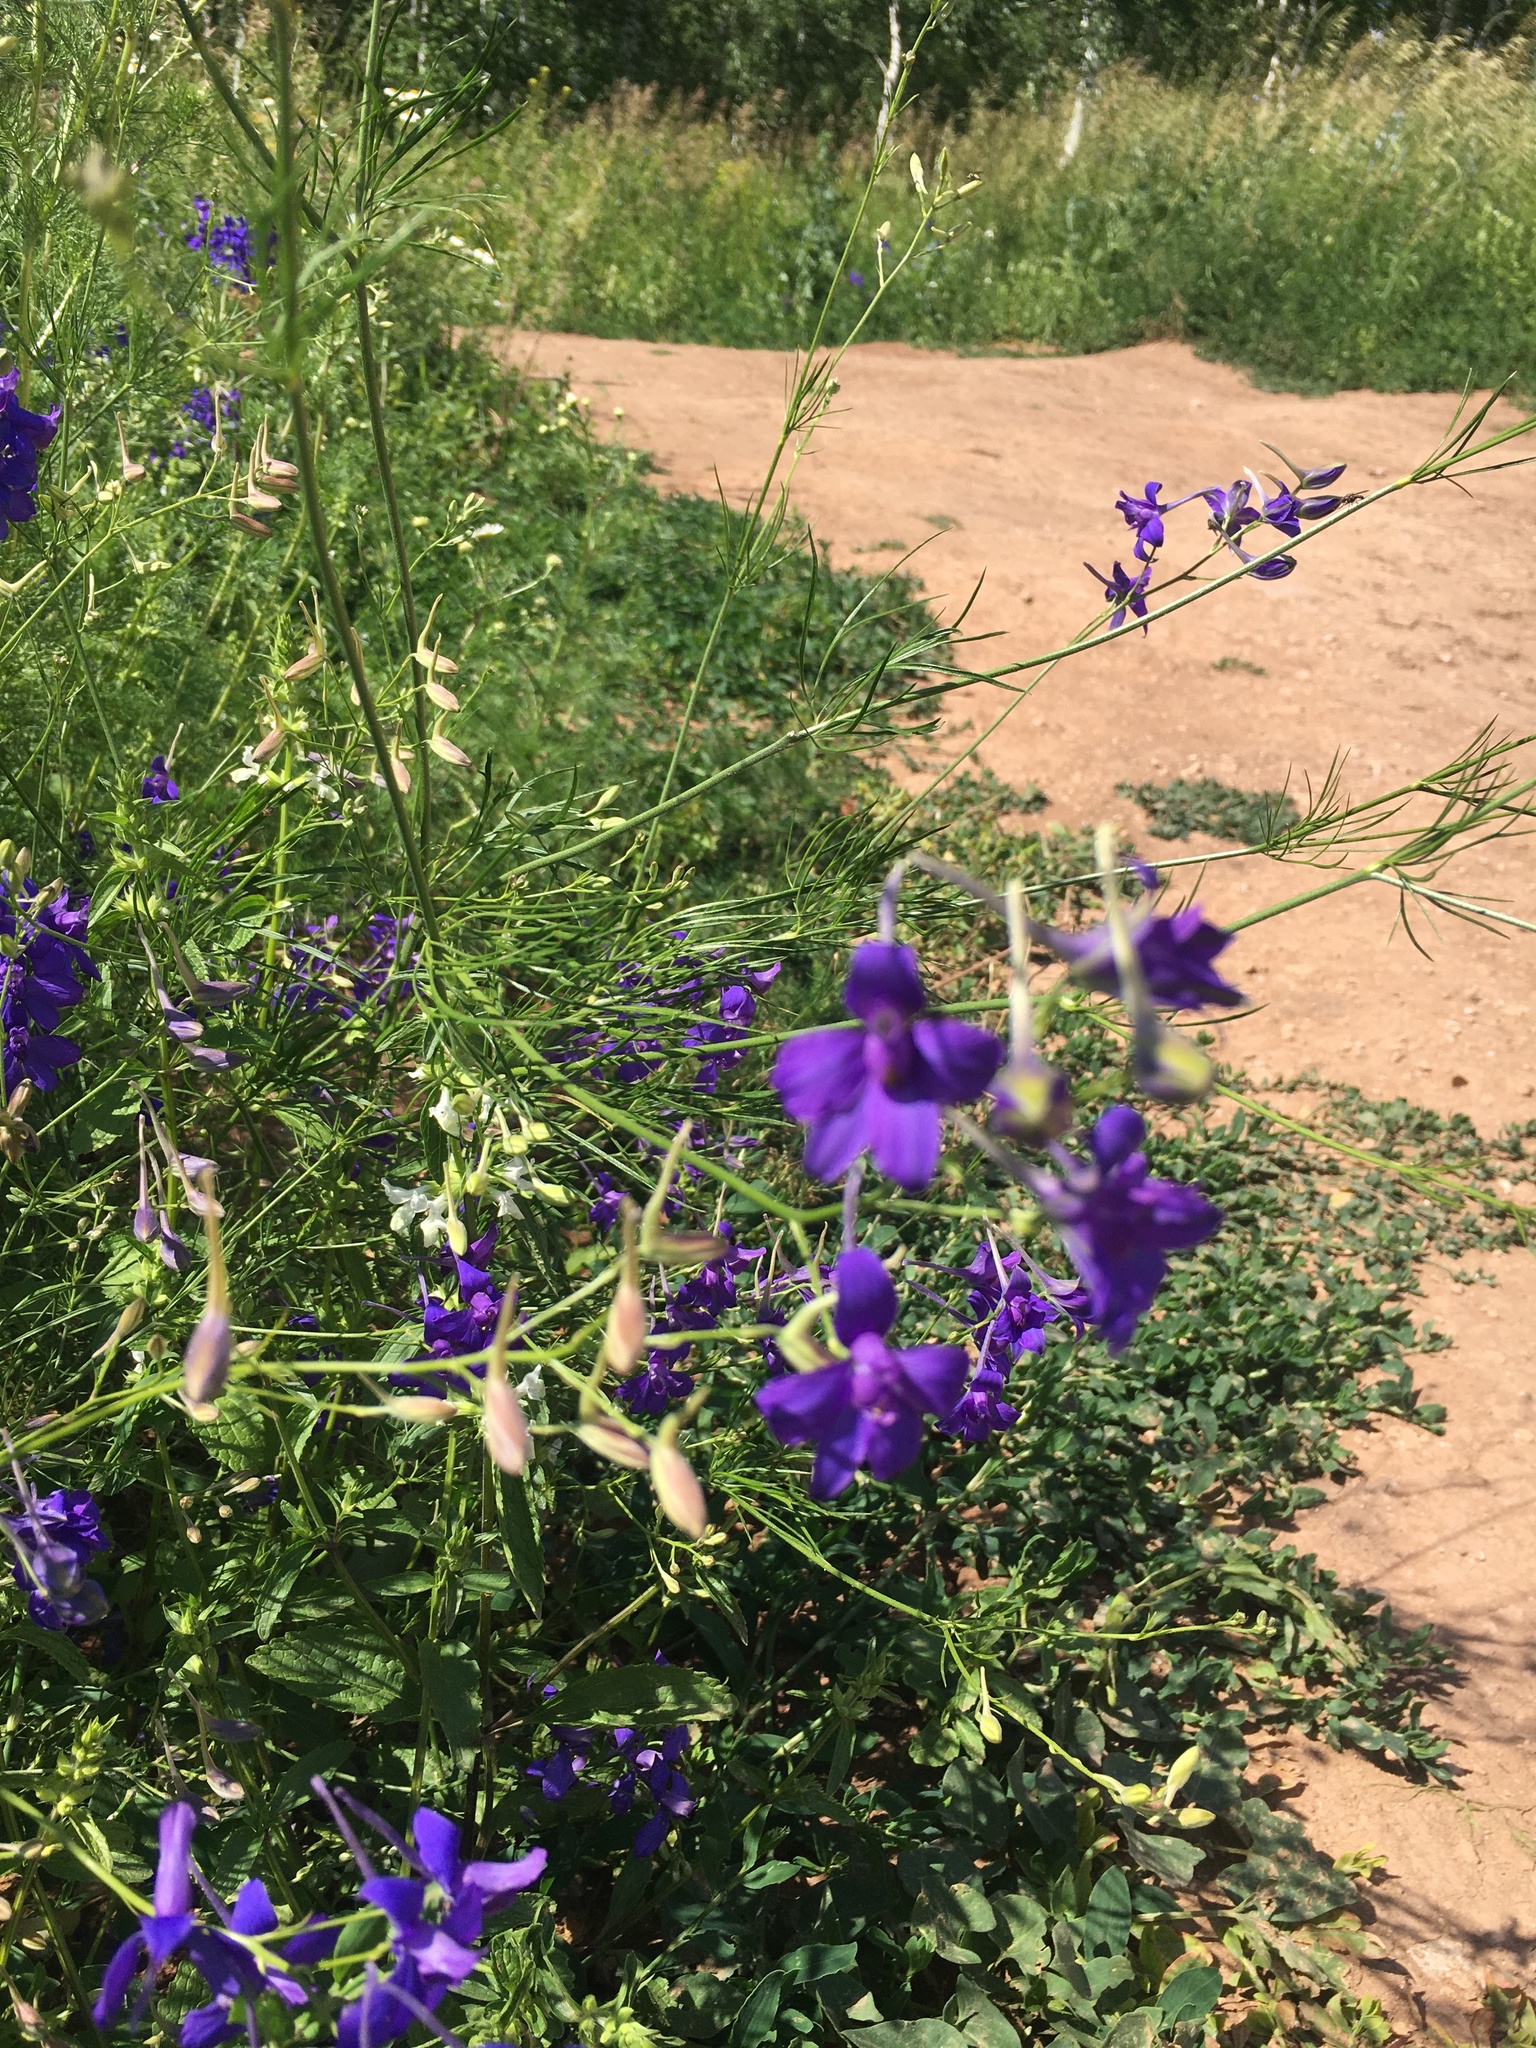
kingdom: Plantae
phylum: Tracheophyta
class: Magnoliopsida
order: Ranunculales
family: Ranunculaceae
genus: Delphinium
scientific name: Delphinium consolida
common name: Branching larkspur
